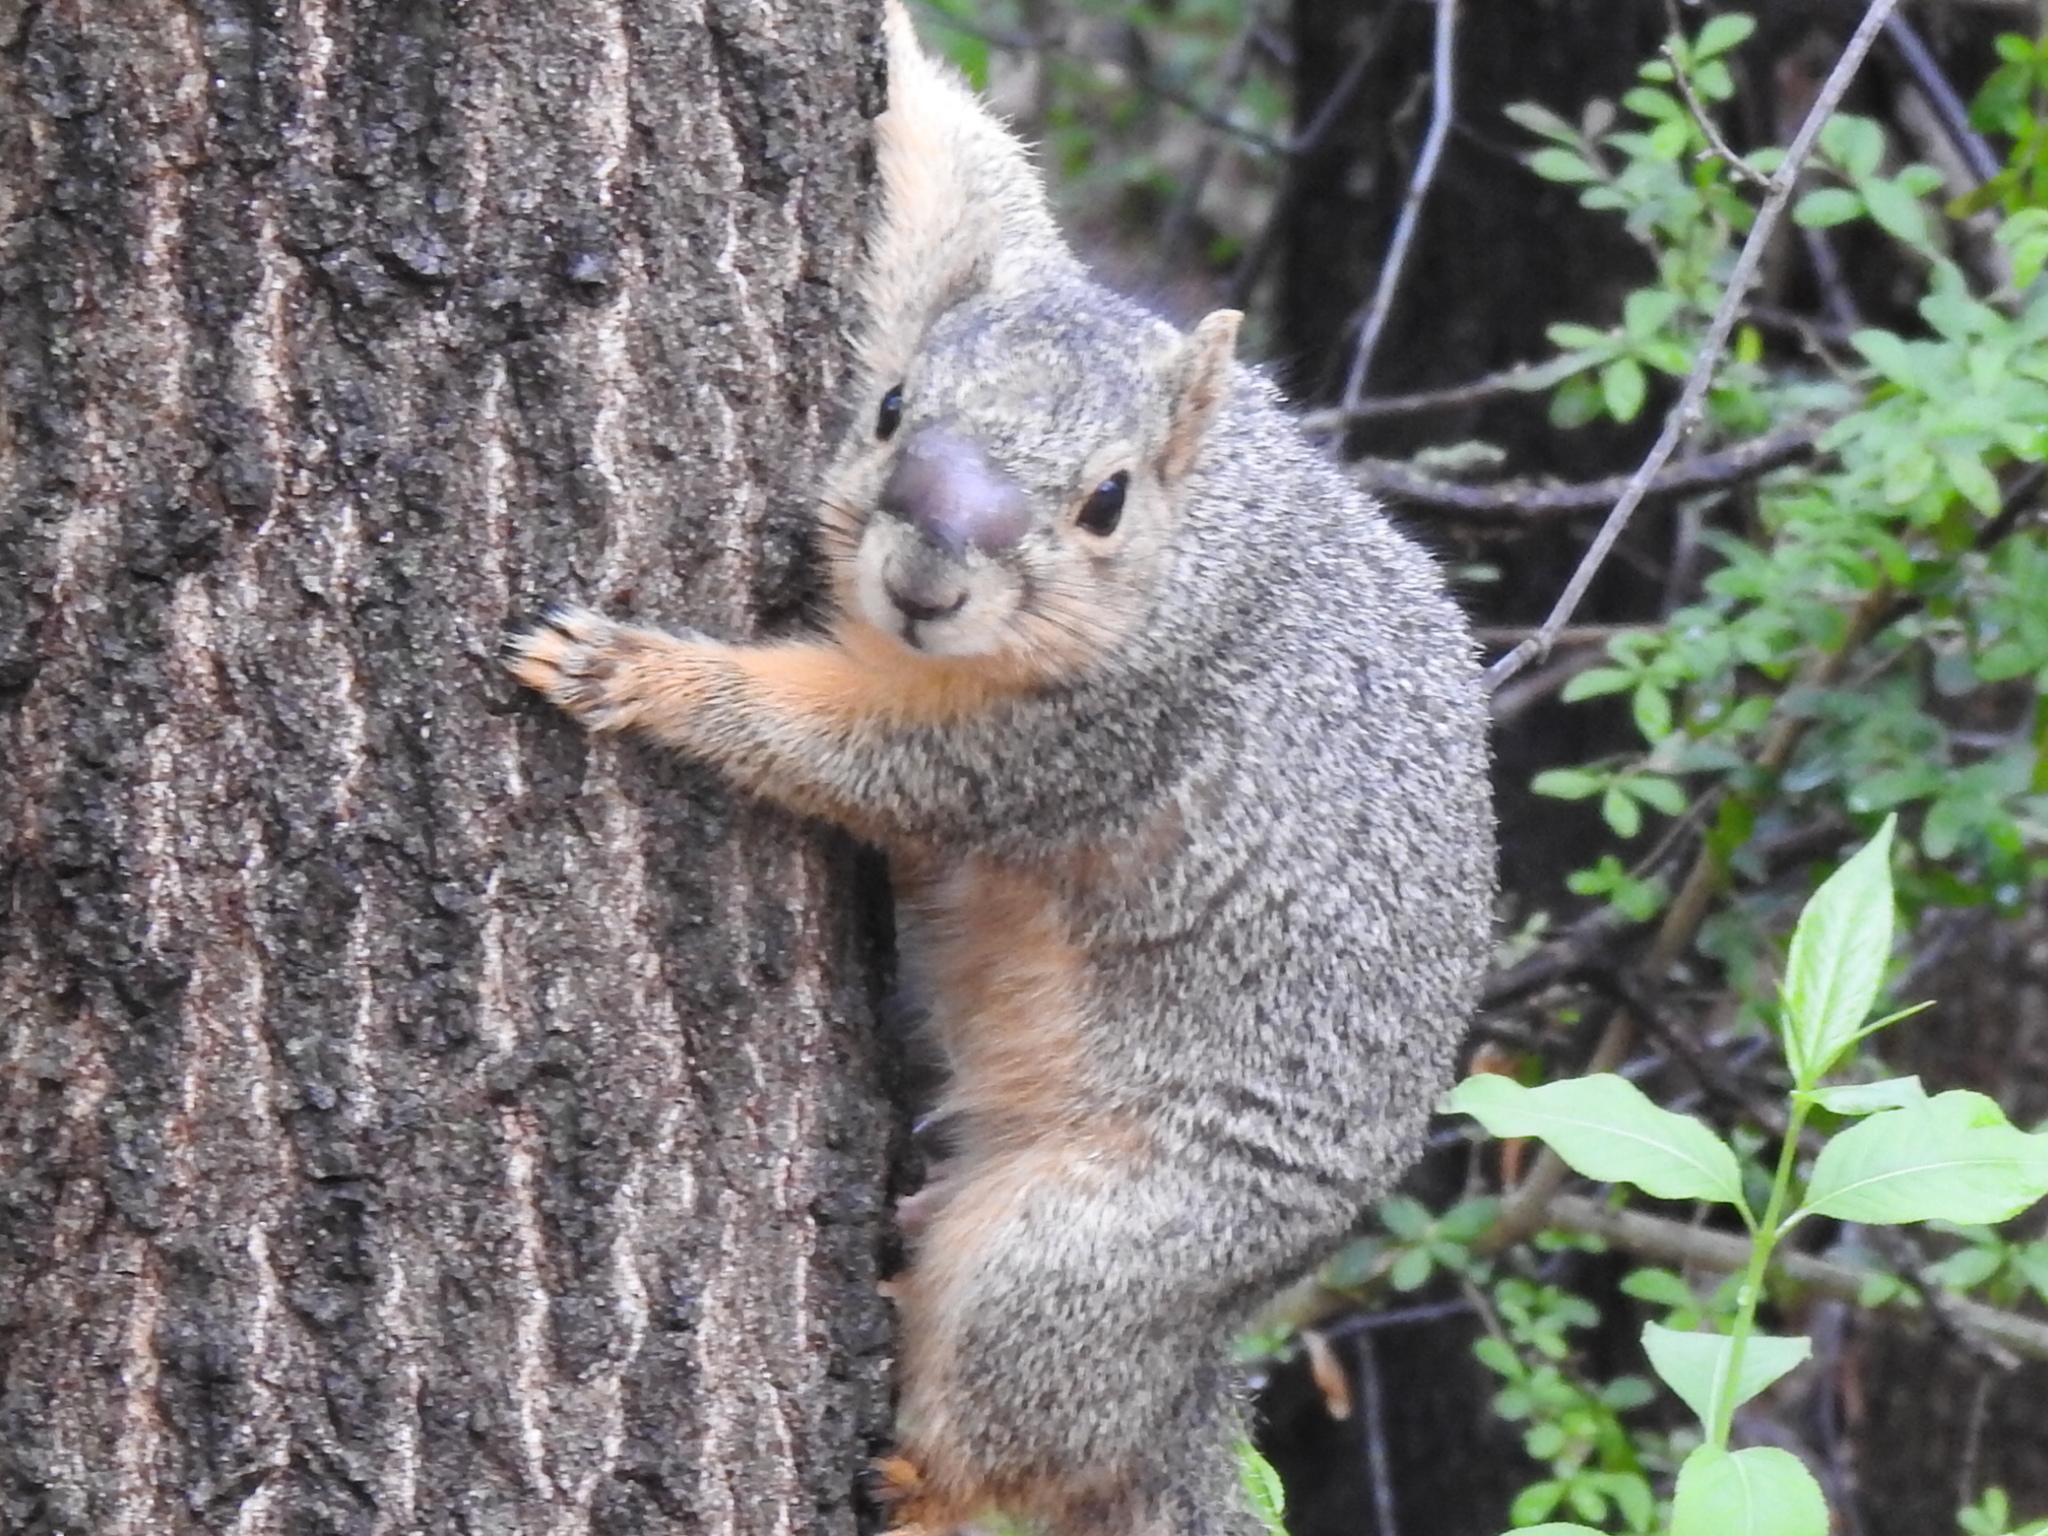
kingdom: Animalia
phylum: Chordata
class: Mammalia
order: Rodentia
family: Sciuridae
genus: Sciurus
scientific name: Sciurus niger
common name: Fox squirrel
